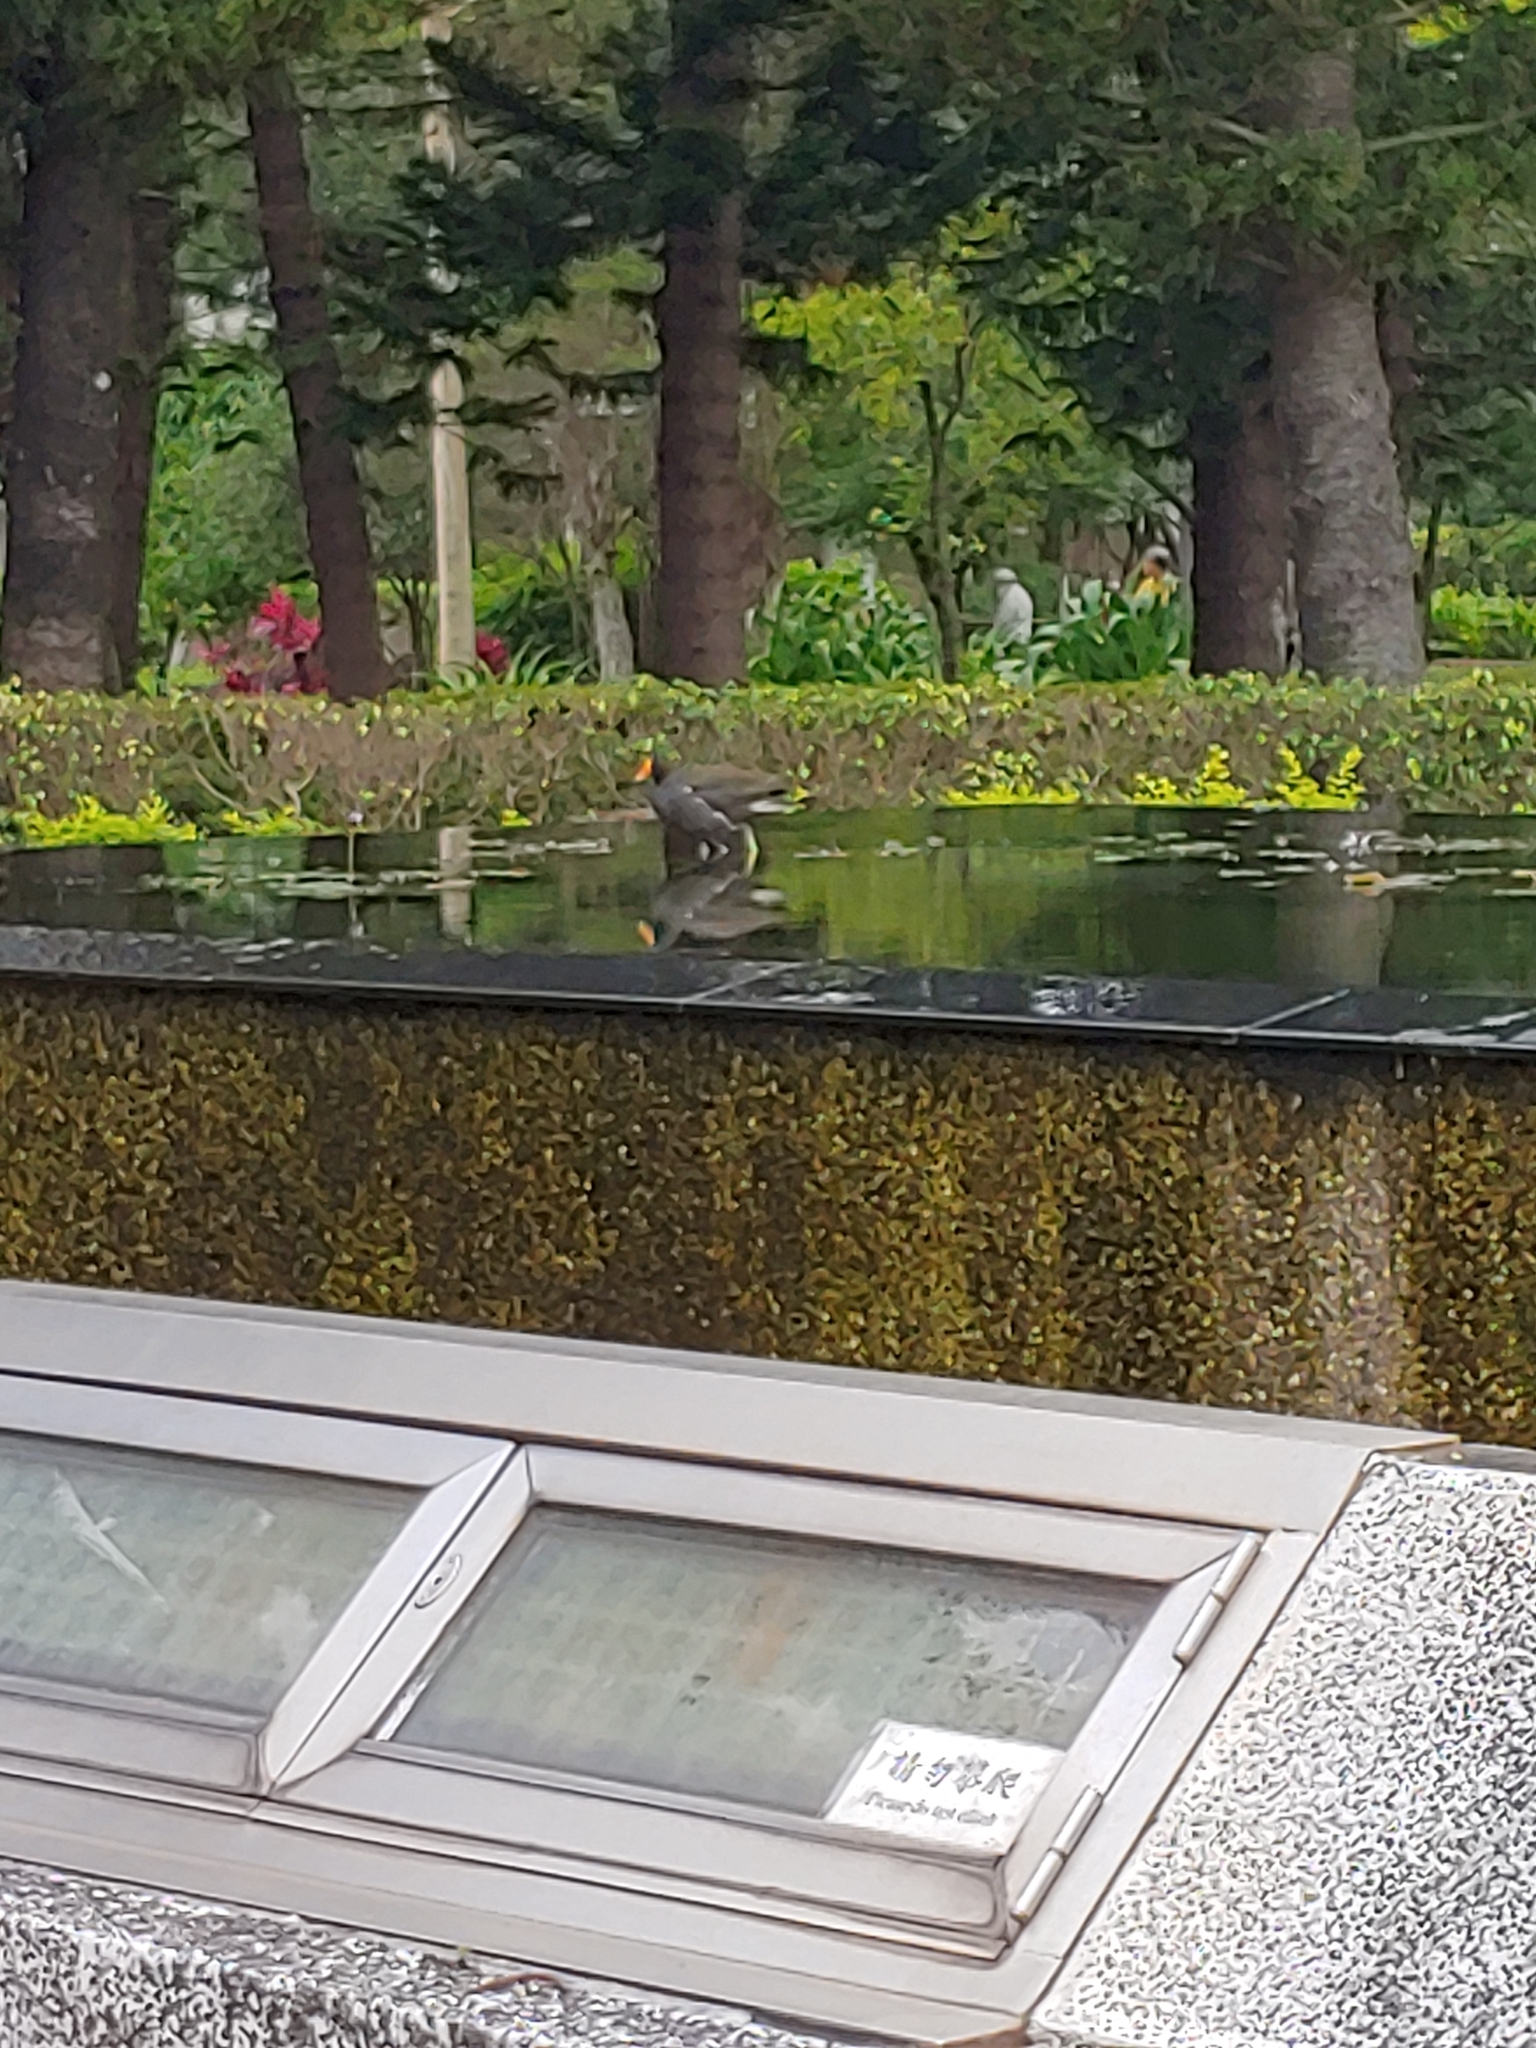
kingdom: Animalia
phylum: Chordata
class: Aves
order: Gruiformes
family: Rallidae
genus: Gallinula
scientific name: Gallinula chloropus
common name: Common moorhen
